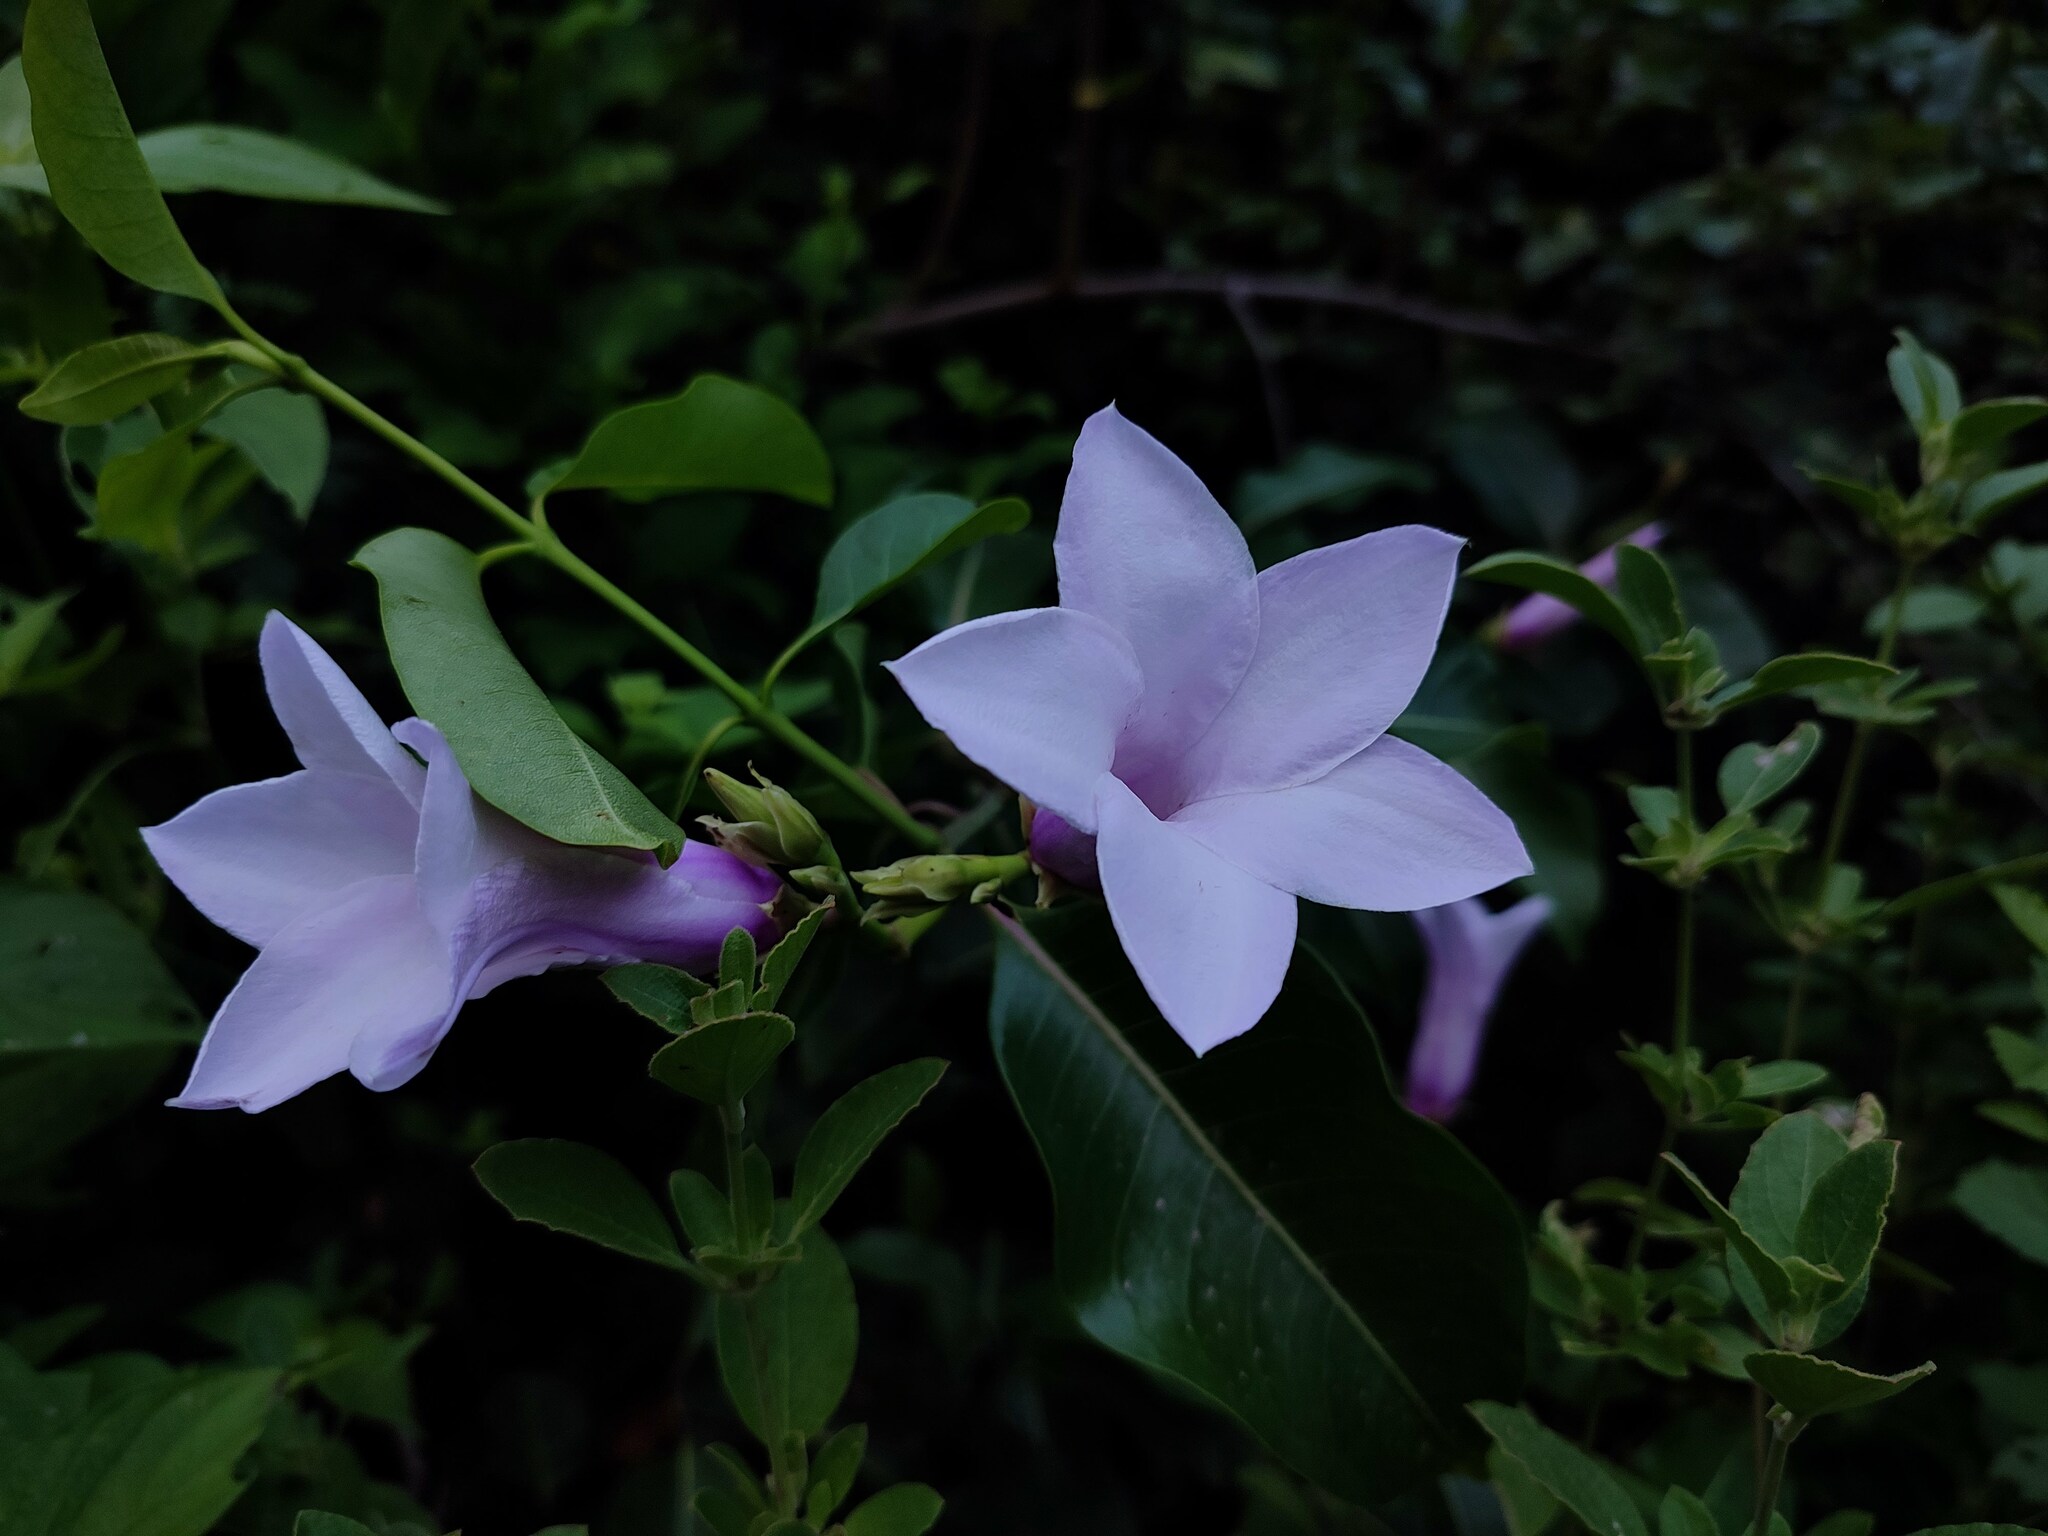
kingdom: Plantae
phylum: Tracheophyta
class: Magnoliopsida
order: Gentianales
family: Apocynaceae
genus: Cryptostegia
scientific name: Cryptostegia grandiflora
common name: Palay rubbervine
